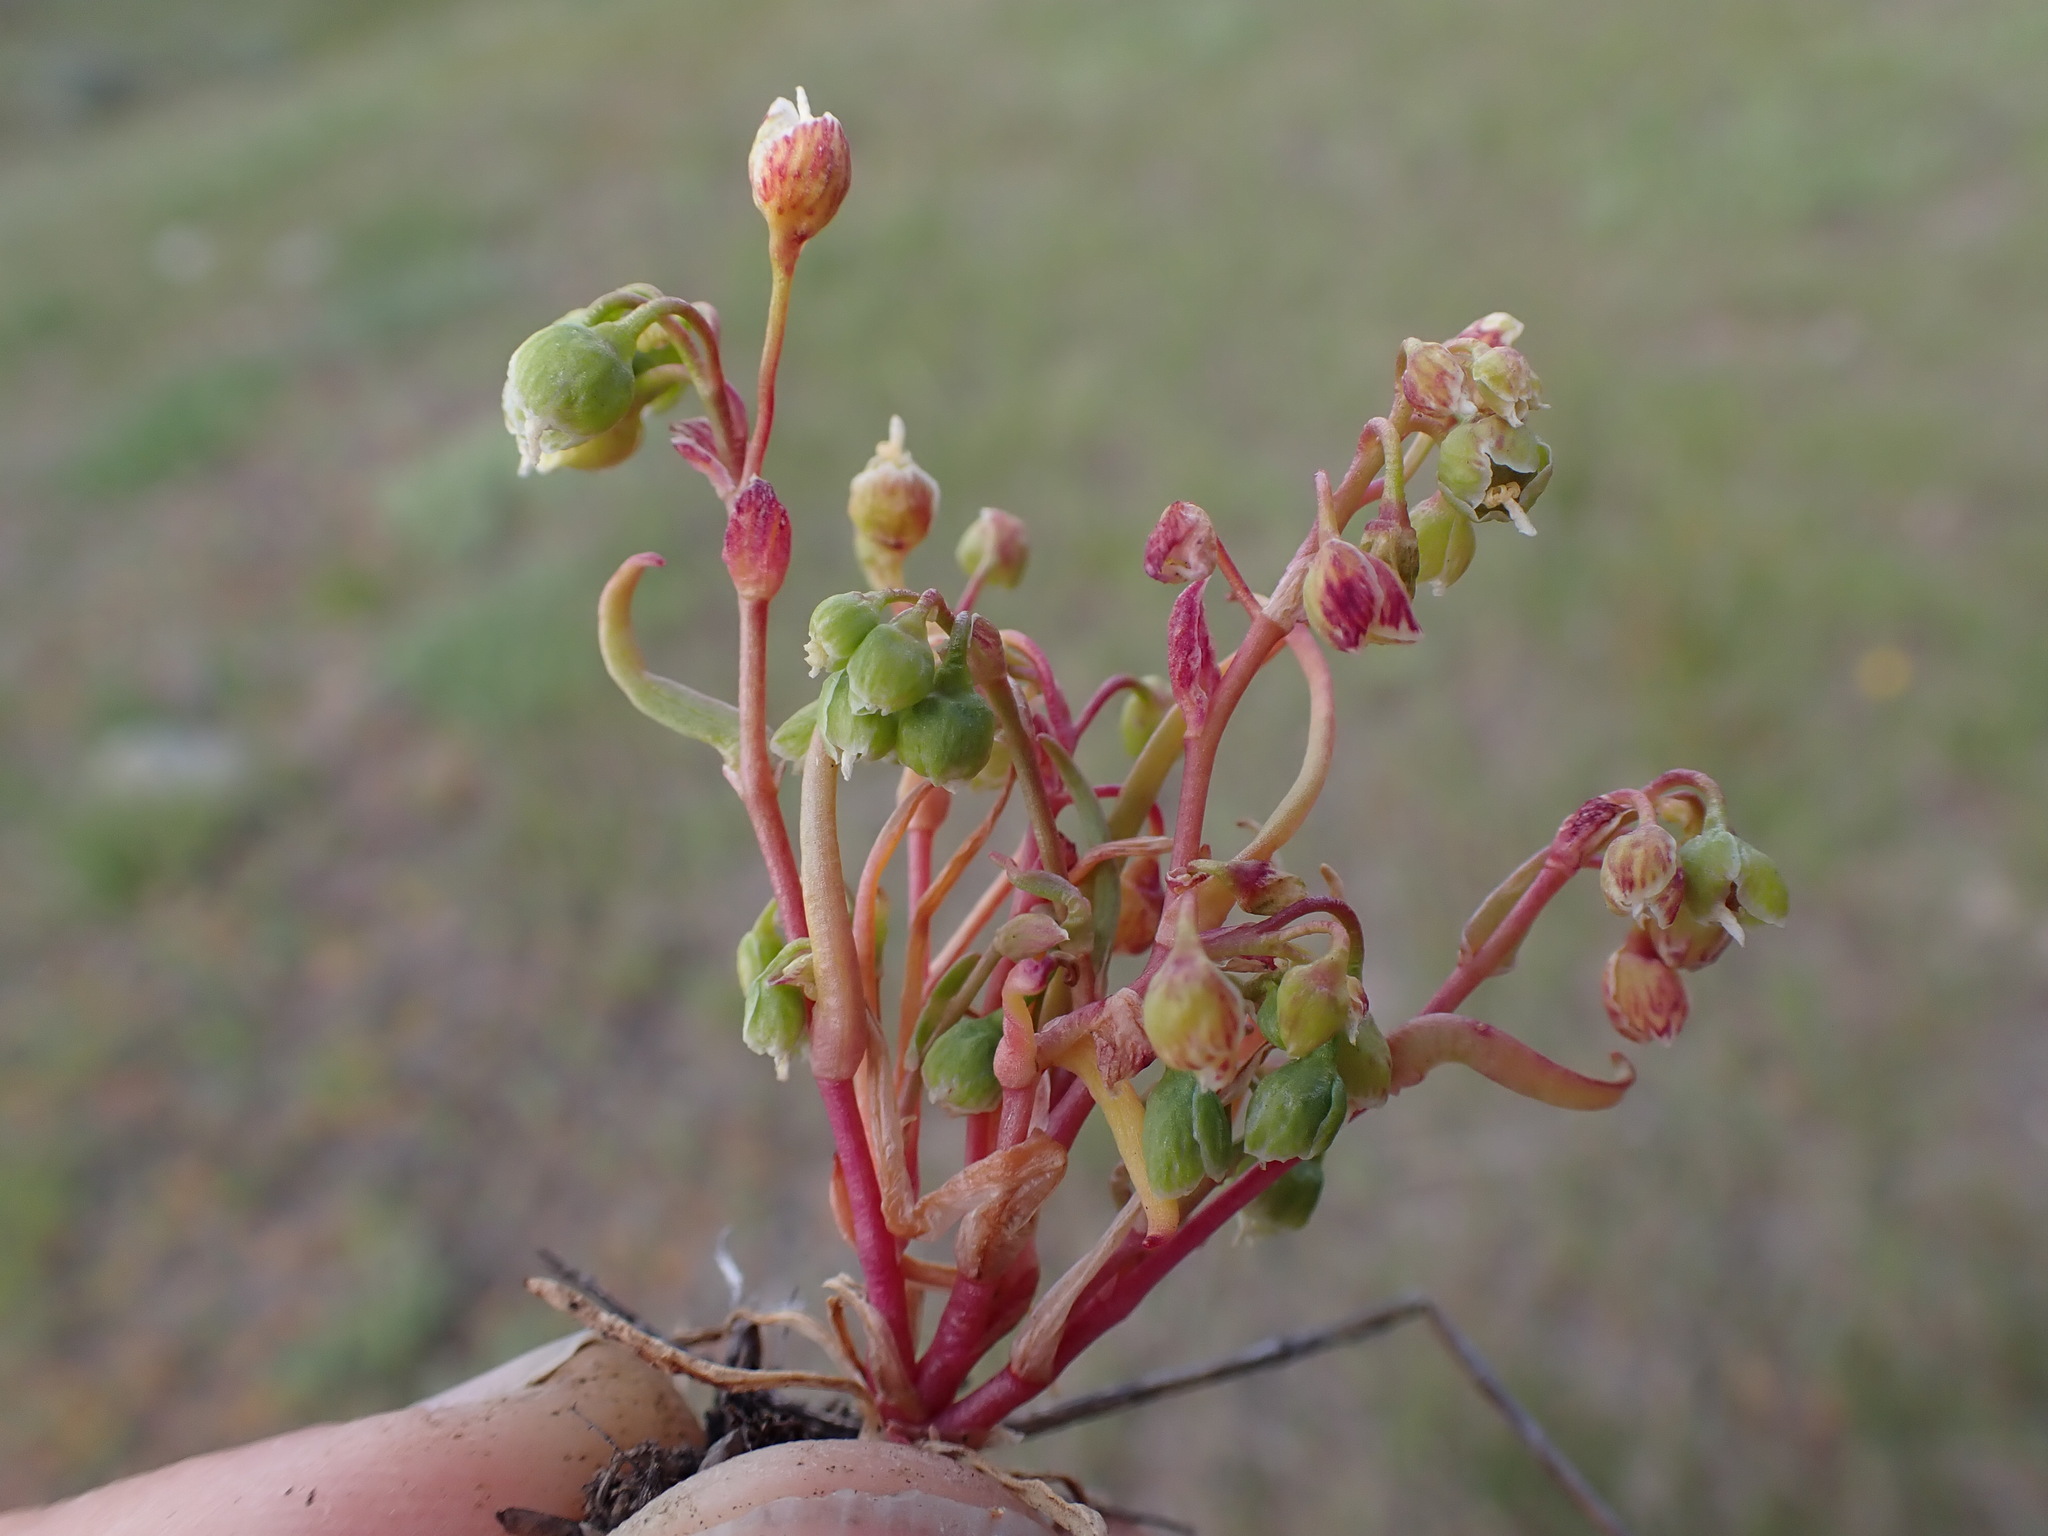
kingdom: Plantae
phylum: Tracheophyta
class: Magnoliopsida
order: Caryophyllales
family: Montiaceae
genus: Montia
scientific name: Montia linearis
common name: Narrow-leaf montia
